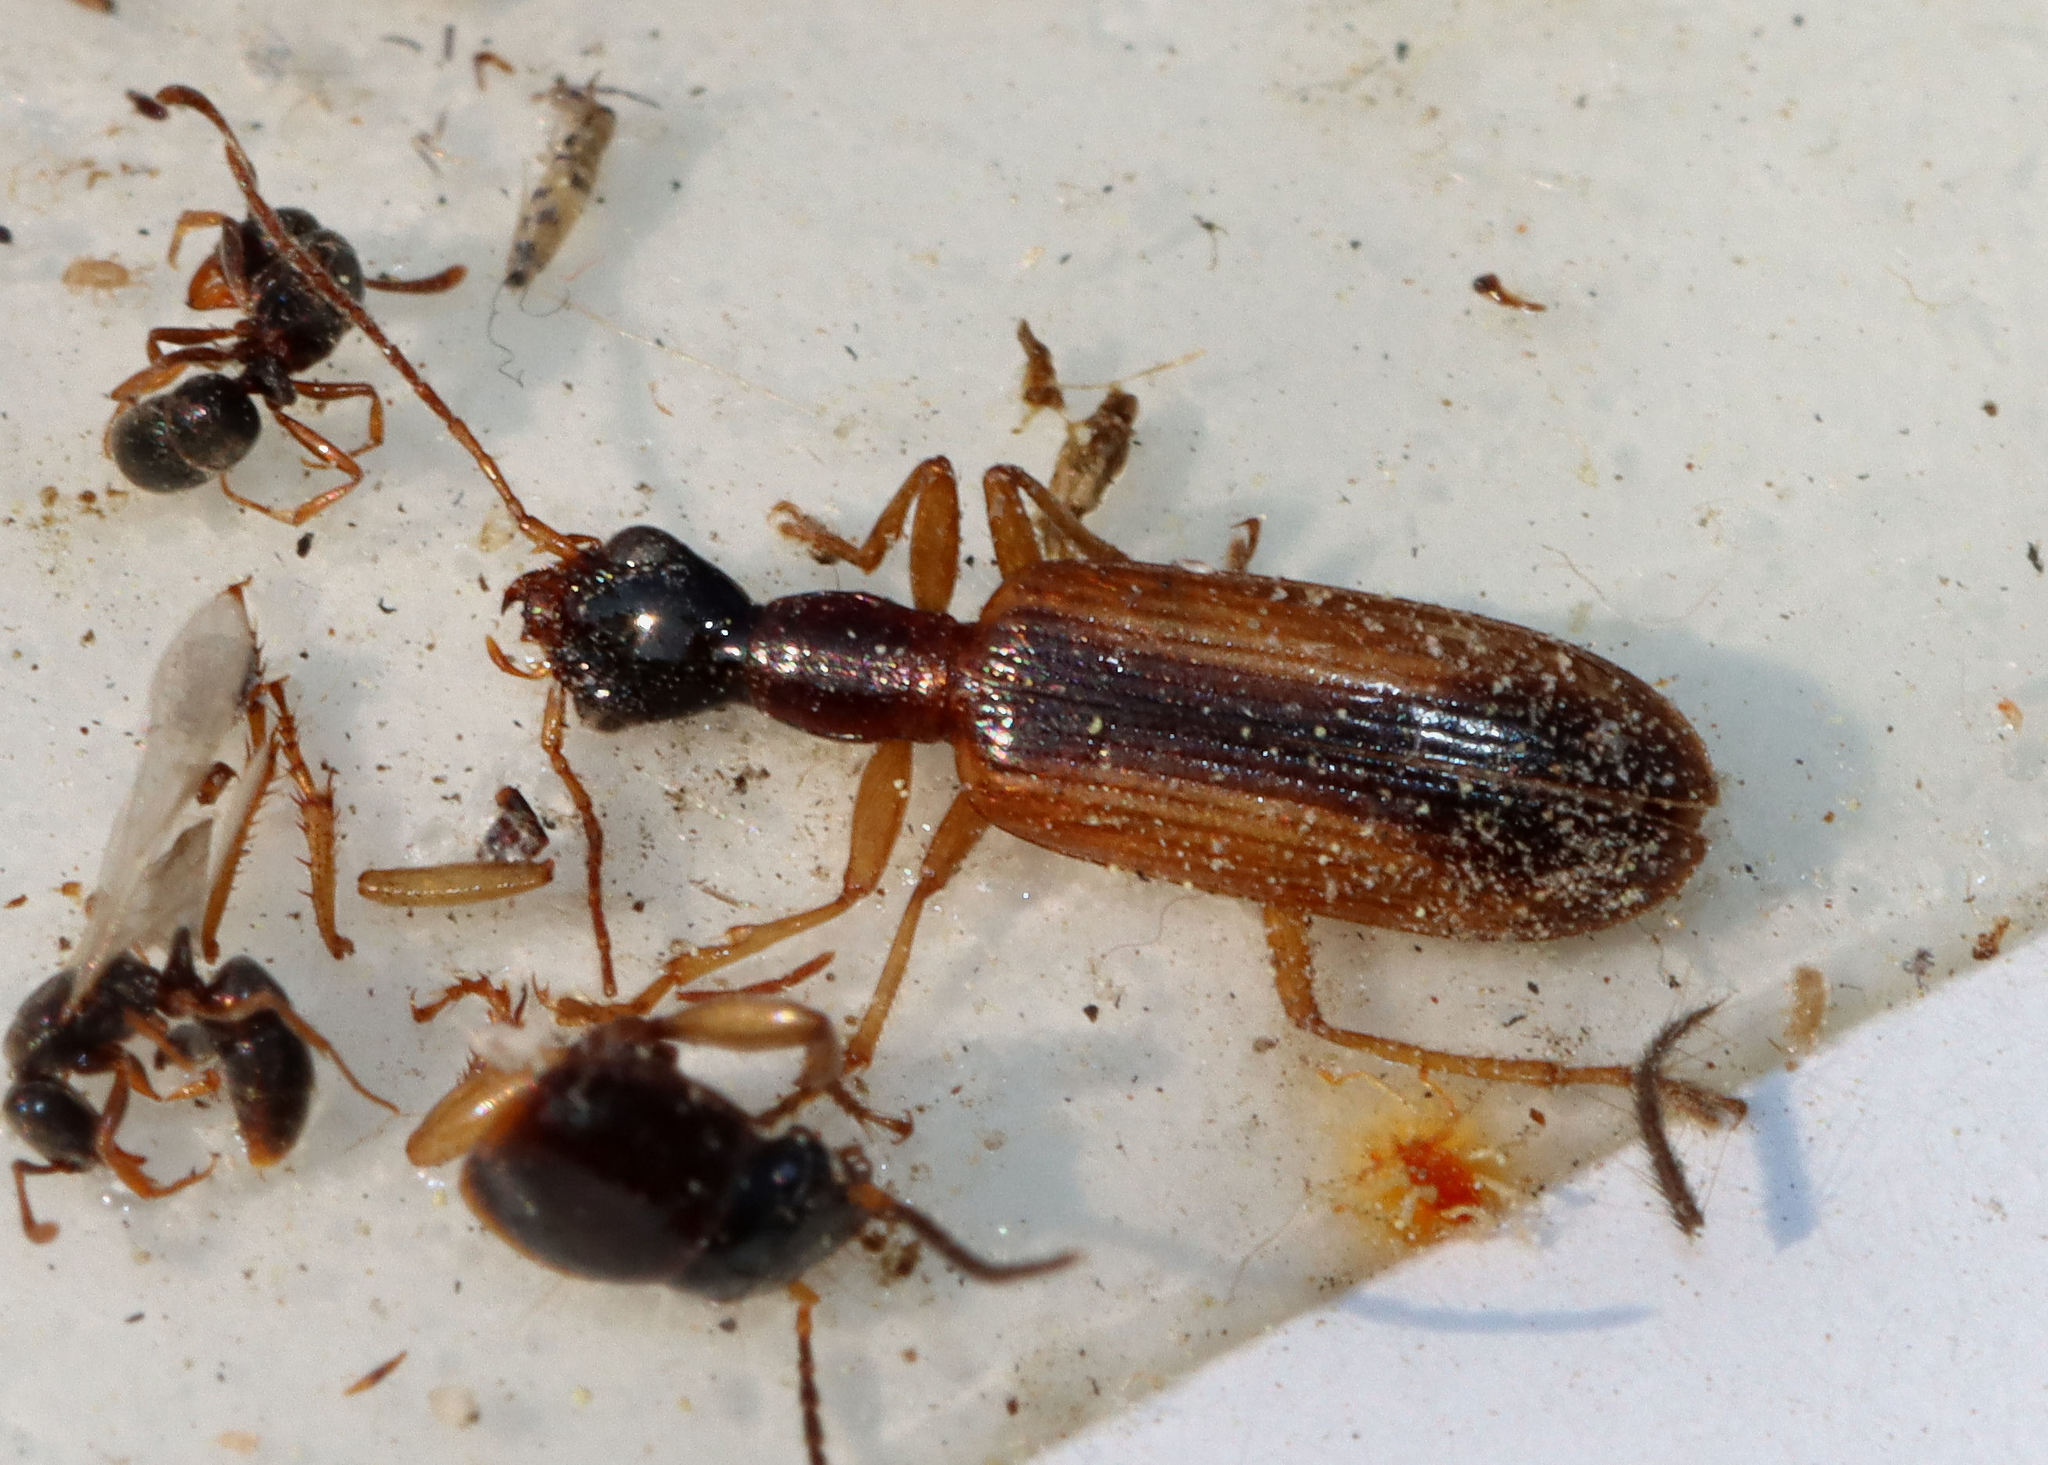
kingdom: Animalia
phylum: Arthropoda
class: Insecta
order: Coleoptera
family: Carabidae
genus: Leptotrachelus
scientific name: Leptotrachelus dorsalis
